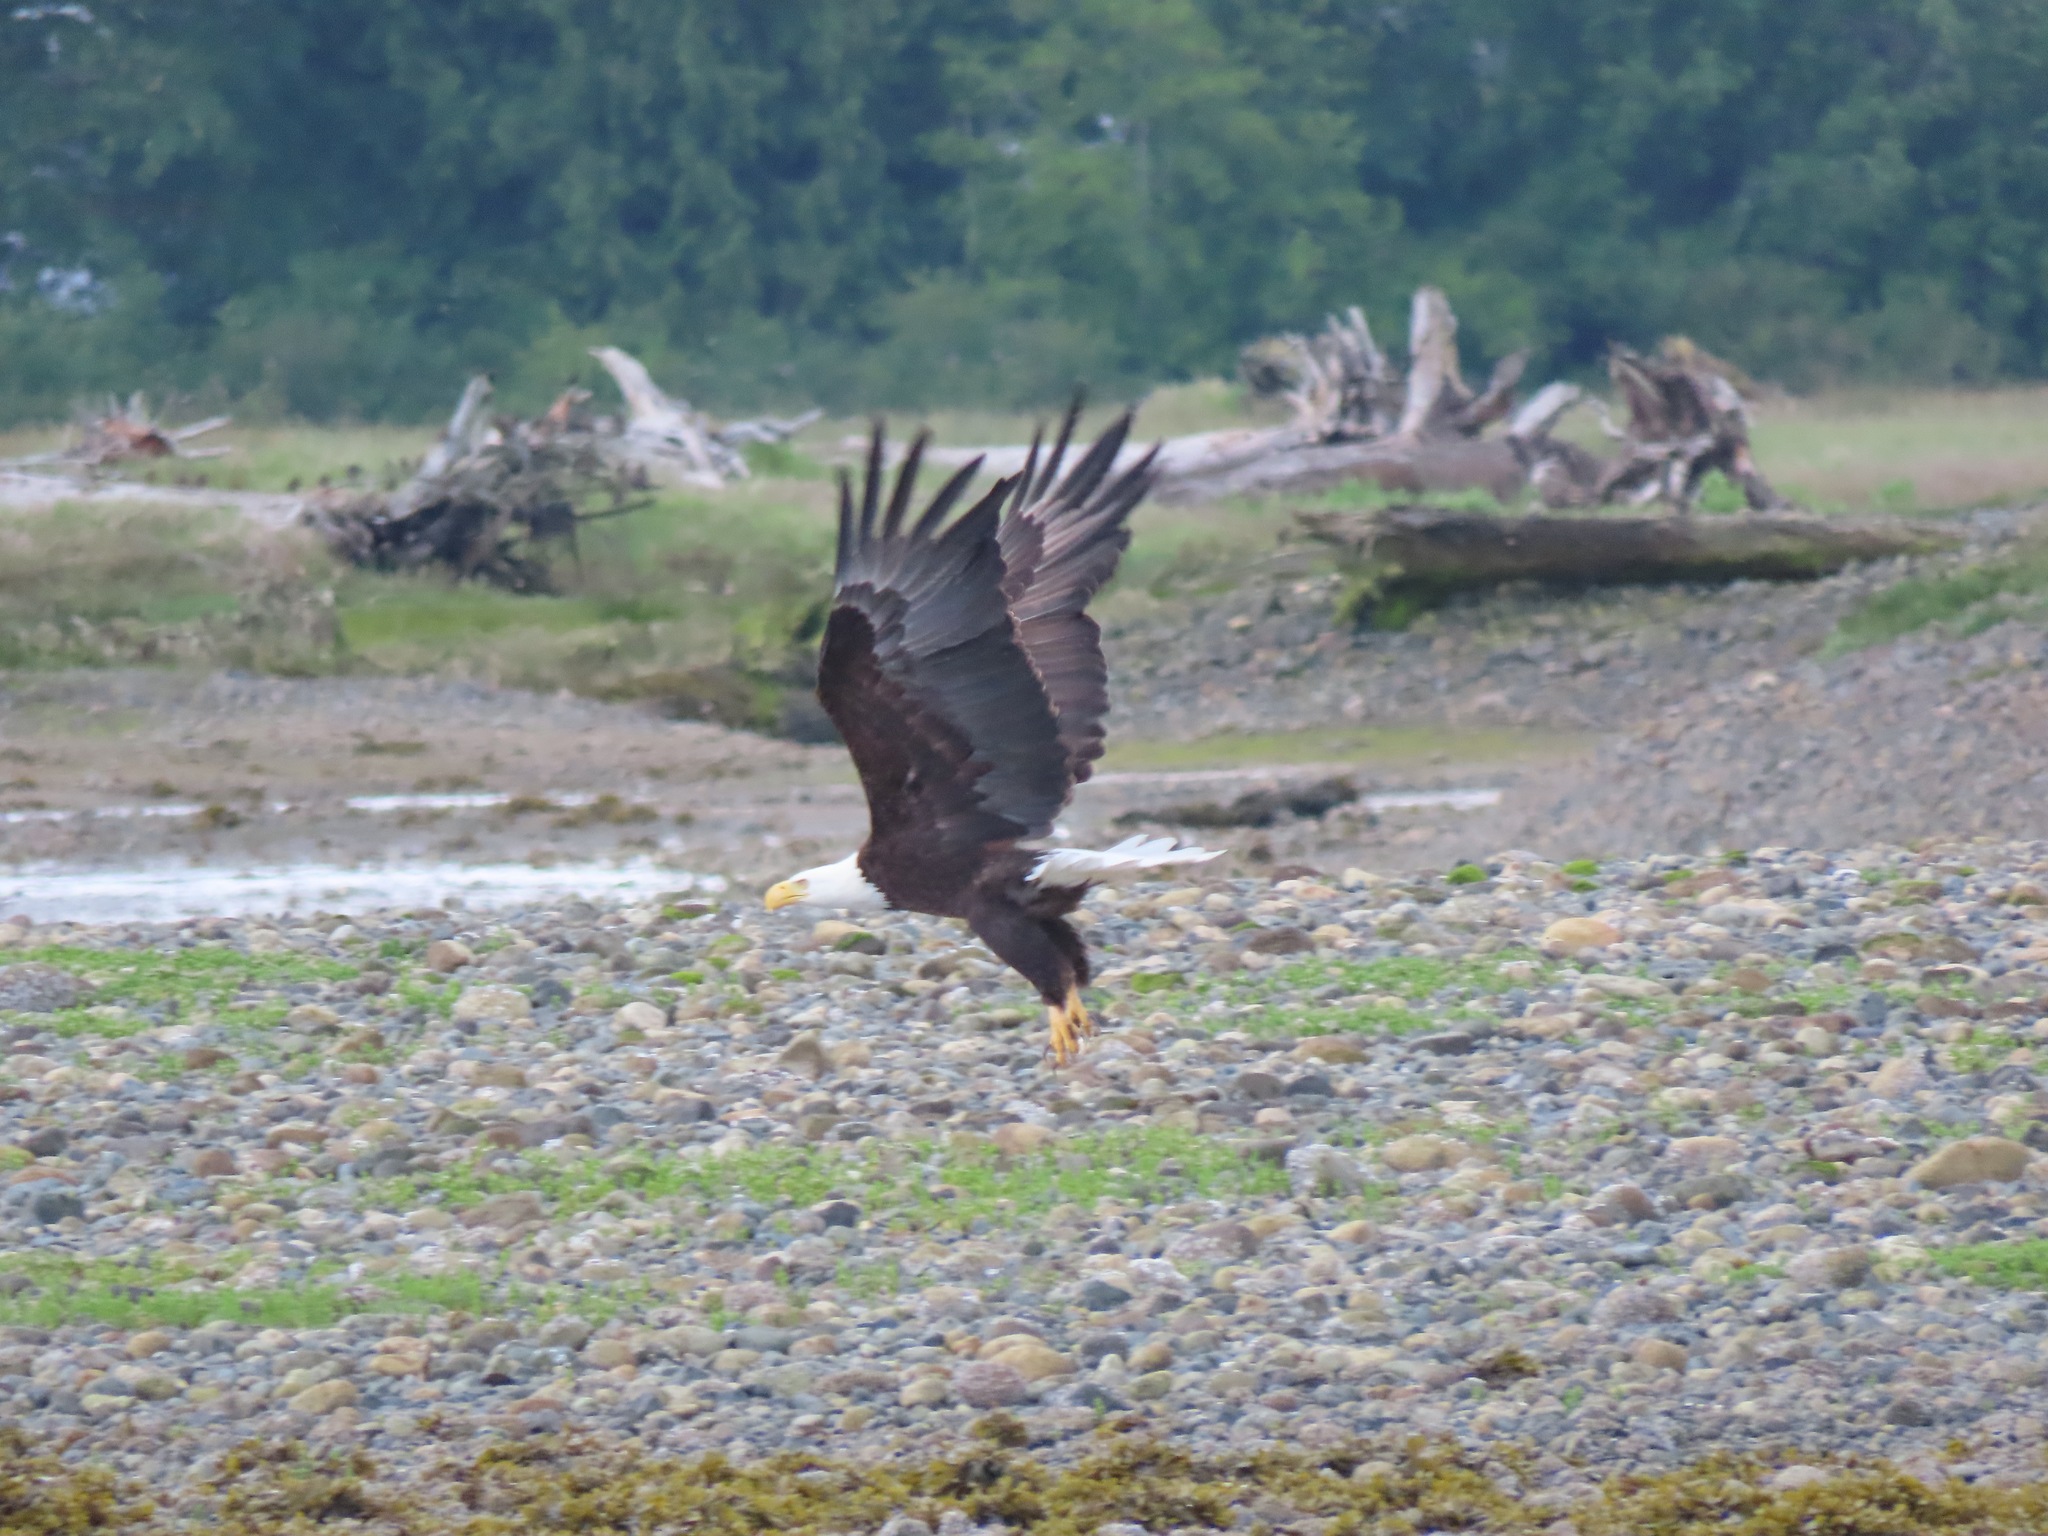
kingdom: Animalia
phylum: Chordata
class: Aves
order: Accipitriformes
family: Accipitridae
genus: Haliaeetus
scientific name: Haliaeetus leucocephalus
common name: Bald eagle
